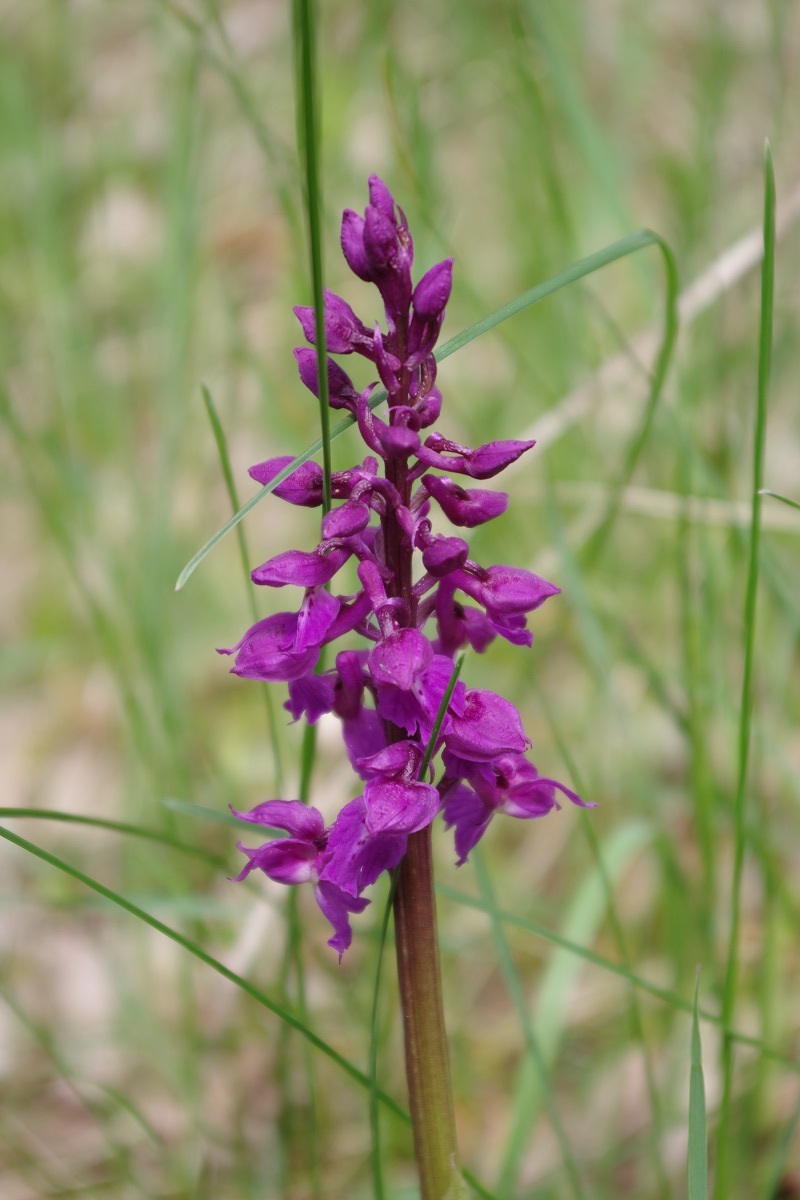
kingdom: Plantae
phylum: Tracheophyta
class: Liliopsida
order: Asparagales
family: Orchidaceae
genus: Orchis
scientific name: Orchis mascula
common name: Early-purple orchid
